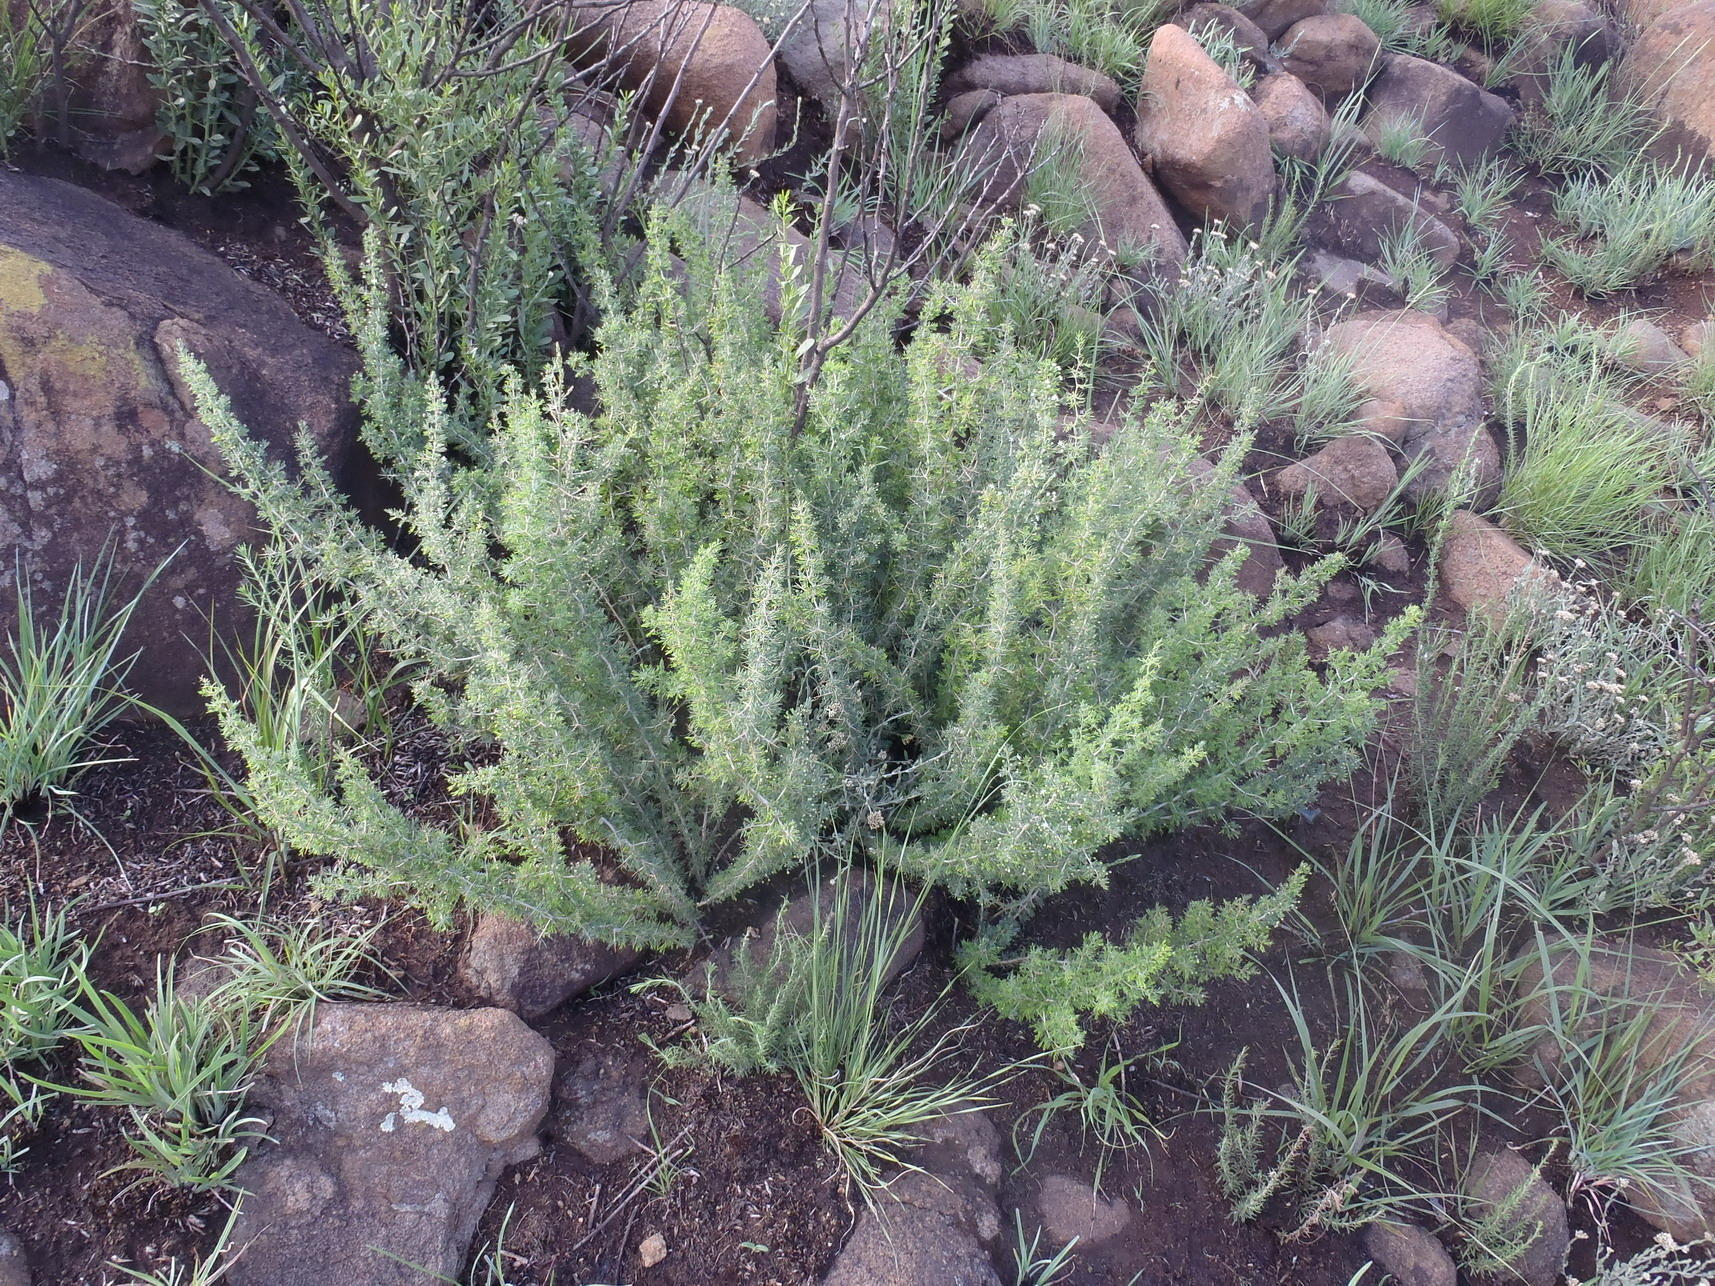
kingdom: Plantae
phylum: Tracheophyta
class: Liliopsida
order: Asparagales
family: Asparagaceae
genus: Asparagus
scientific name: Asparagus suaveolens
